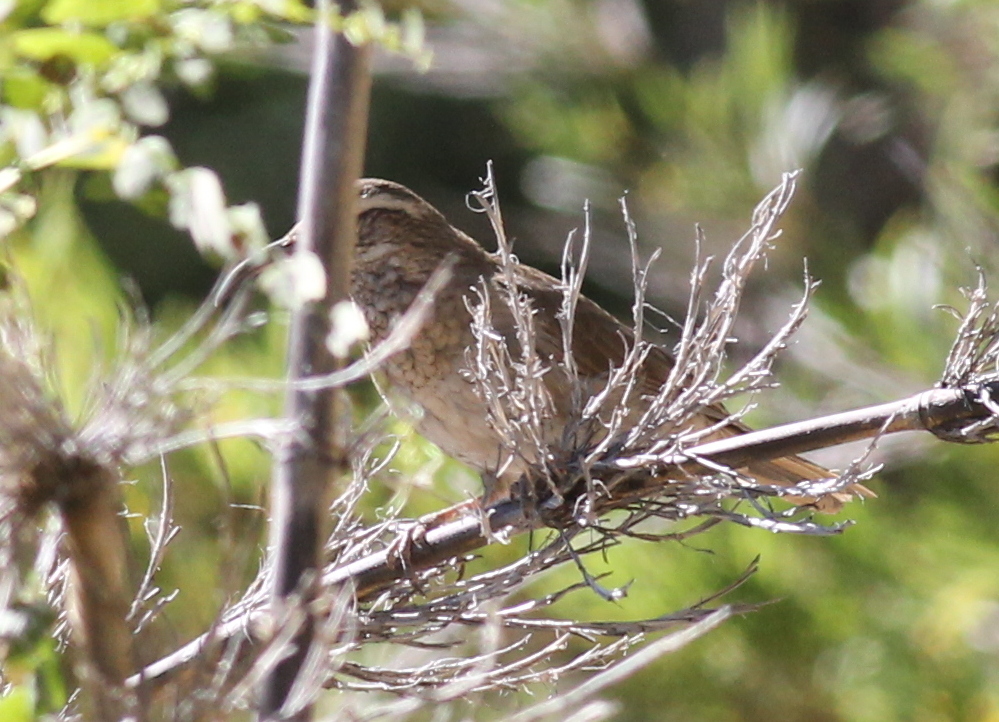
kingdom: Animalia
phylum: Chordata
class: Aves
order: Passeriformes
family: Furnariidae
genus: Upucerthia
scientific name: Upucerthia saturatior
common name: Patagonian forest earthcreeper
